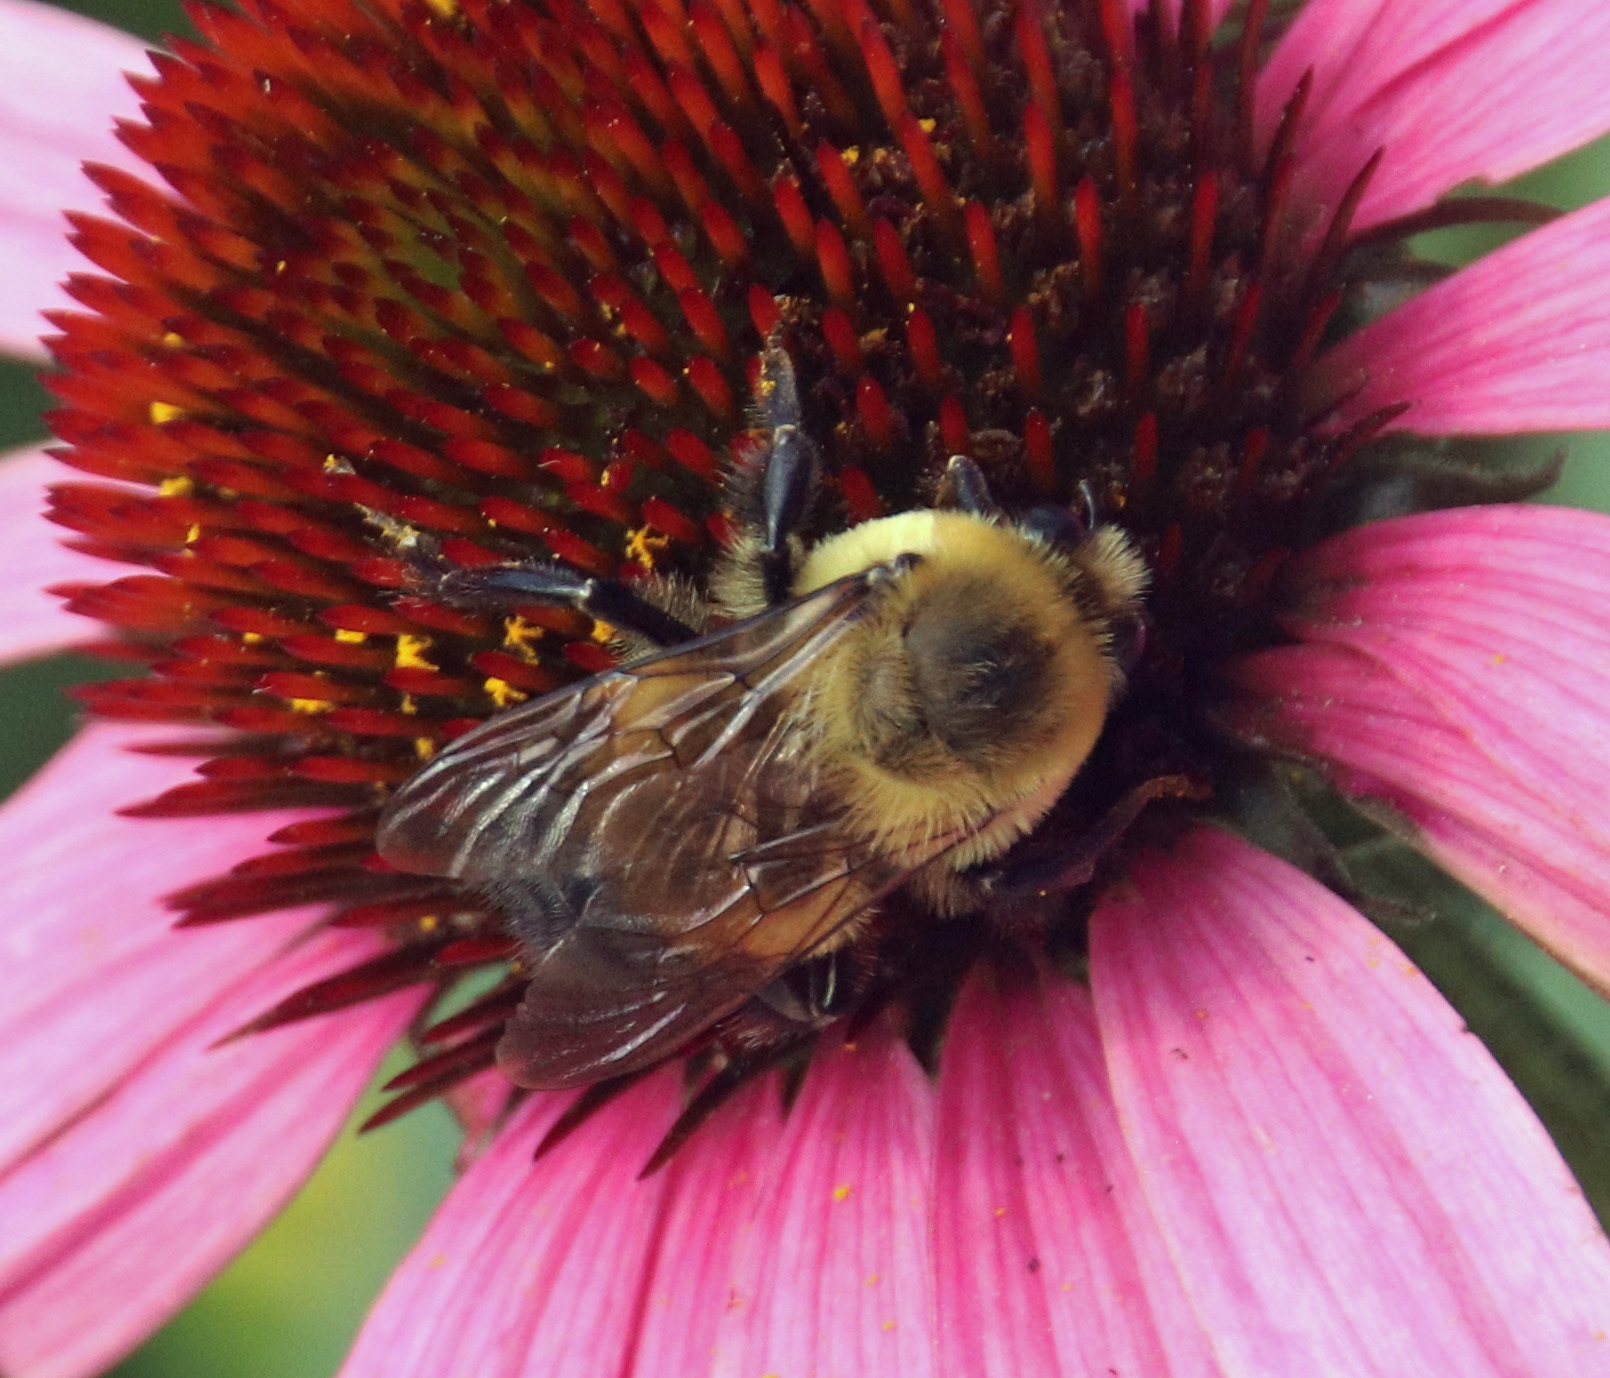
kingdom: Animalia
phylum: Arthropoda
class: Insecta
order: Hymenoptera
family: Apidae
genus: Bombus
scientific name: Bombus griseocollis
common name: Brown-belted bumble bee
